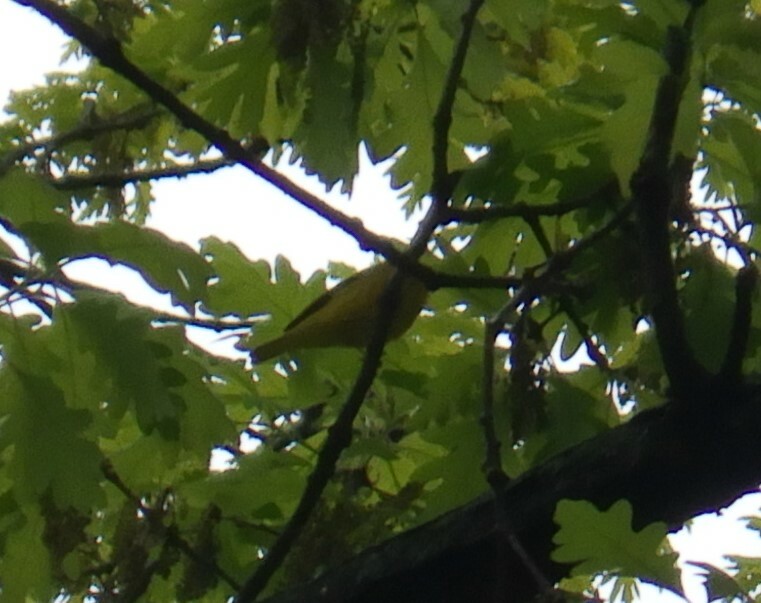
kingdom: Animalia
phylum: Chordata
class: Aves
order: Passeriformes
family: Parulidae
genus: Setophaga
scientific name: Setophaga petechia
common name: Yellow warbler
